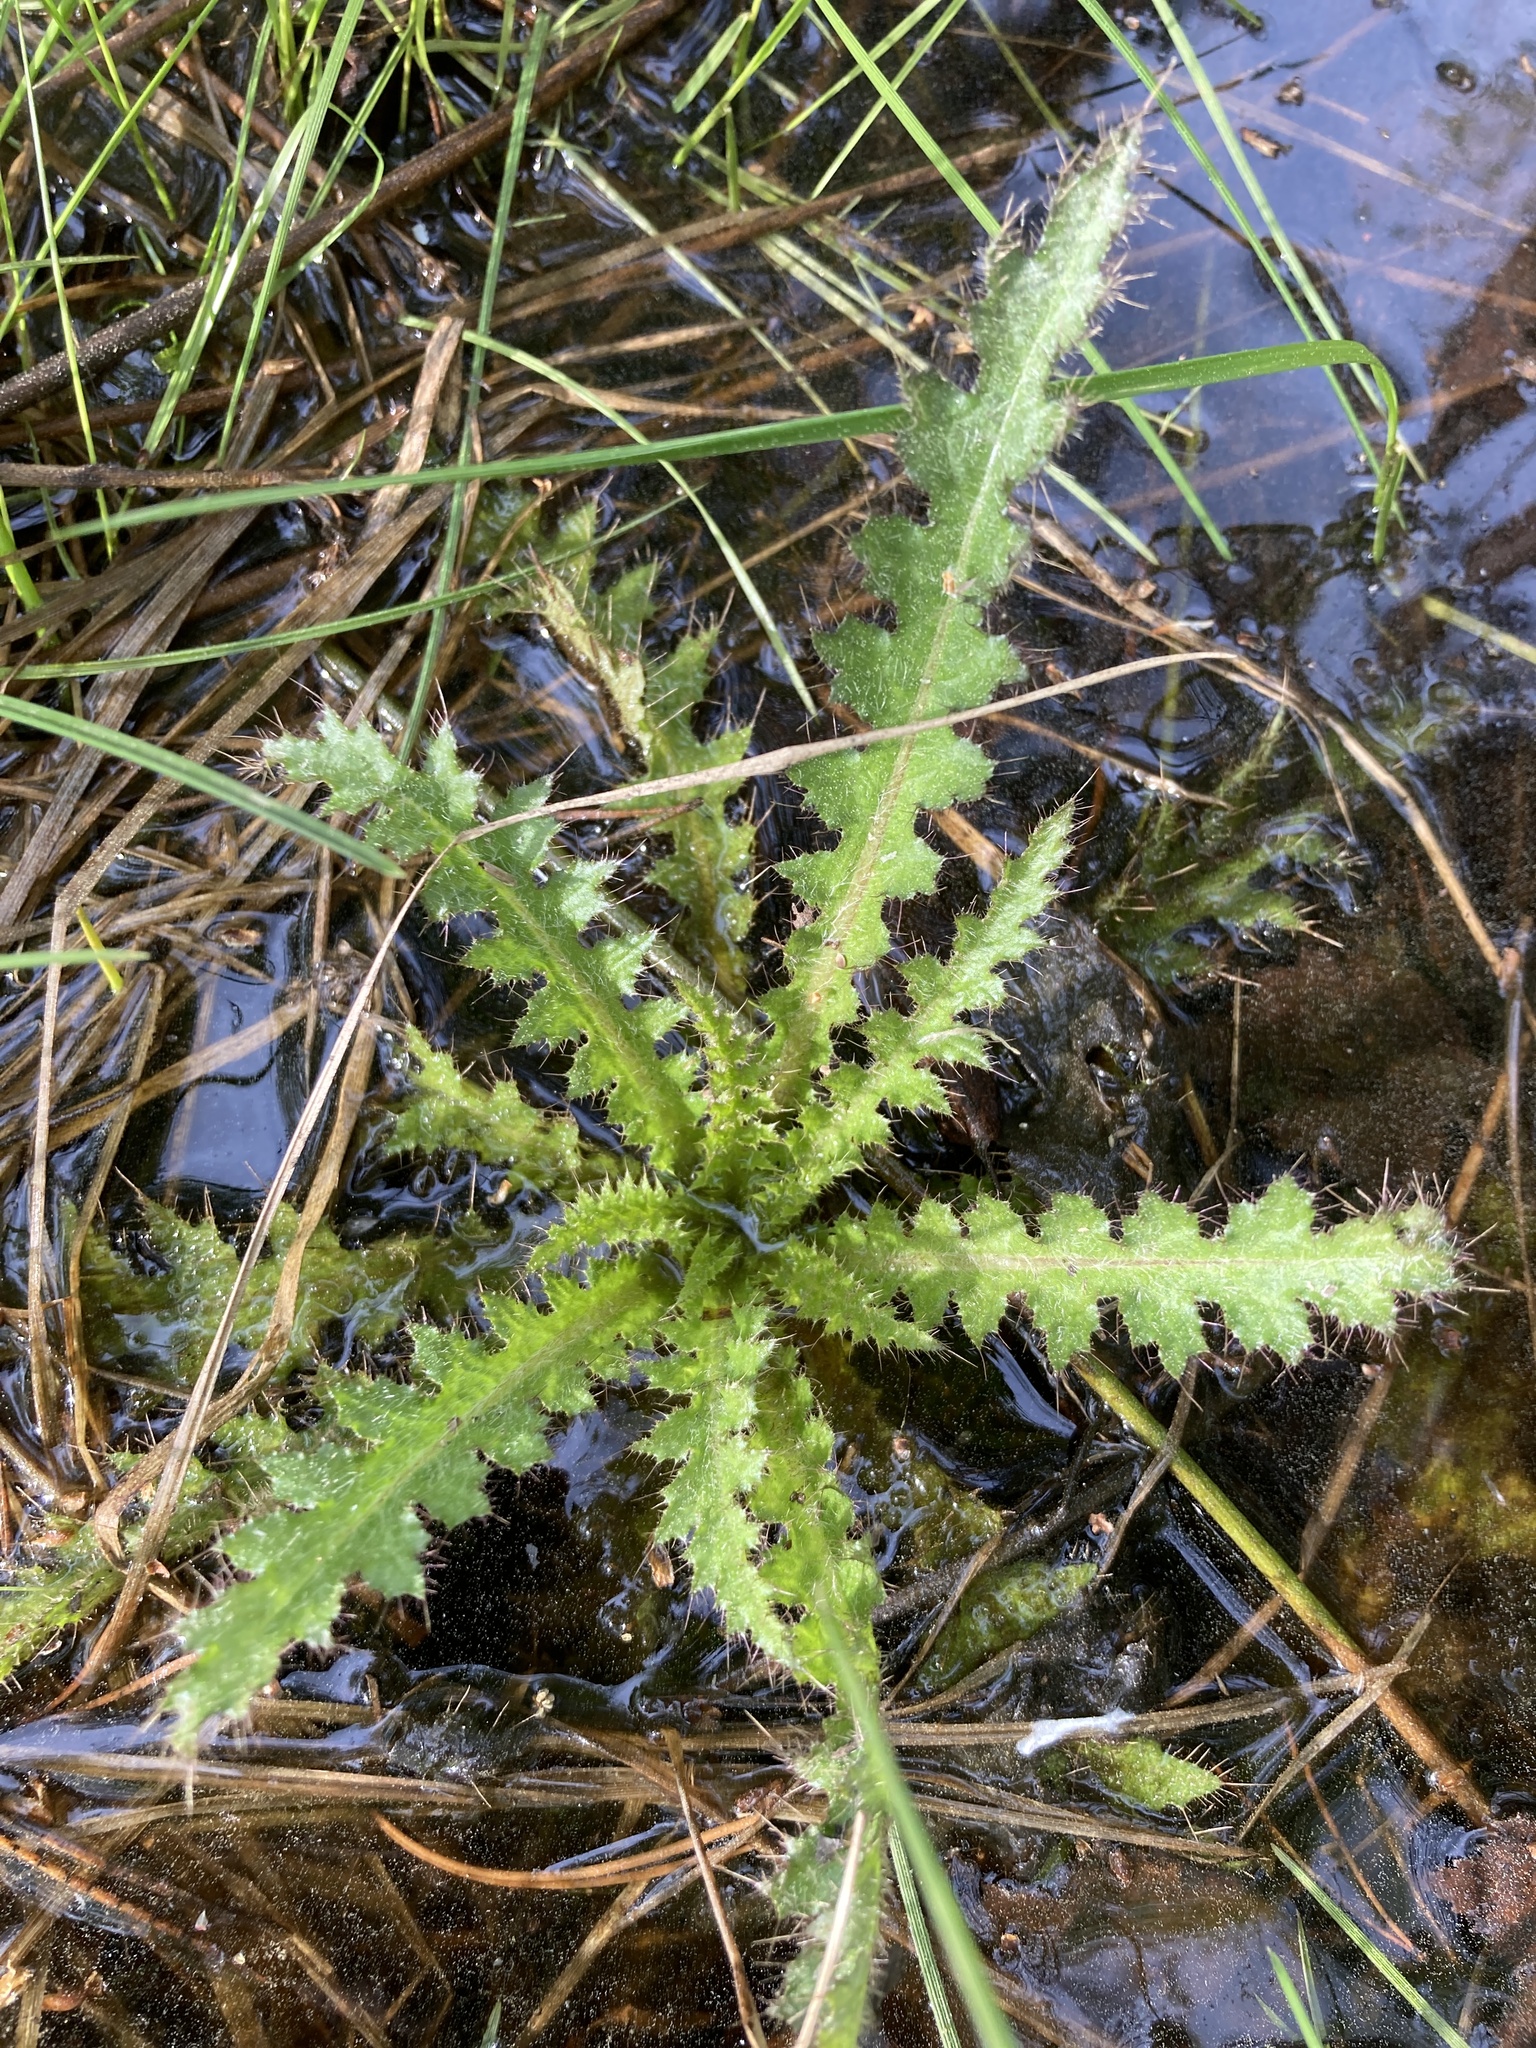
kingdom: Plantae
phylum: Tracheophyta
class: Magnoliopsida
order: Asterales
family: Asteraceae
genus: Cirsium
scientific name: Cirsium palustre
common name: Marsh thistle
